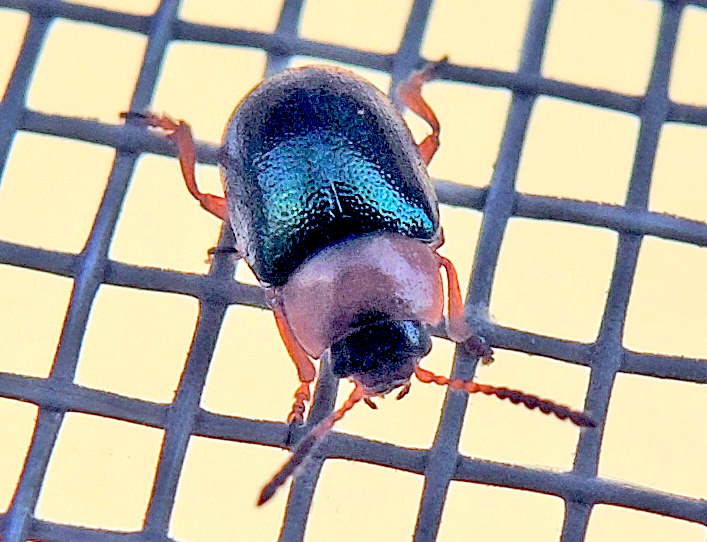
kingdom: Animalia
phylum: Arthropoda
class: Insecta
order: Coleoptera
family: Chrysomelidae
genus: Gastrophysa
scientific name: Gastrophysa polygoni
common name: Knotweed leaf beetle
